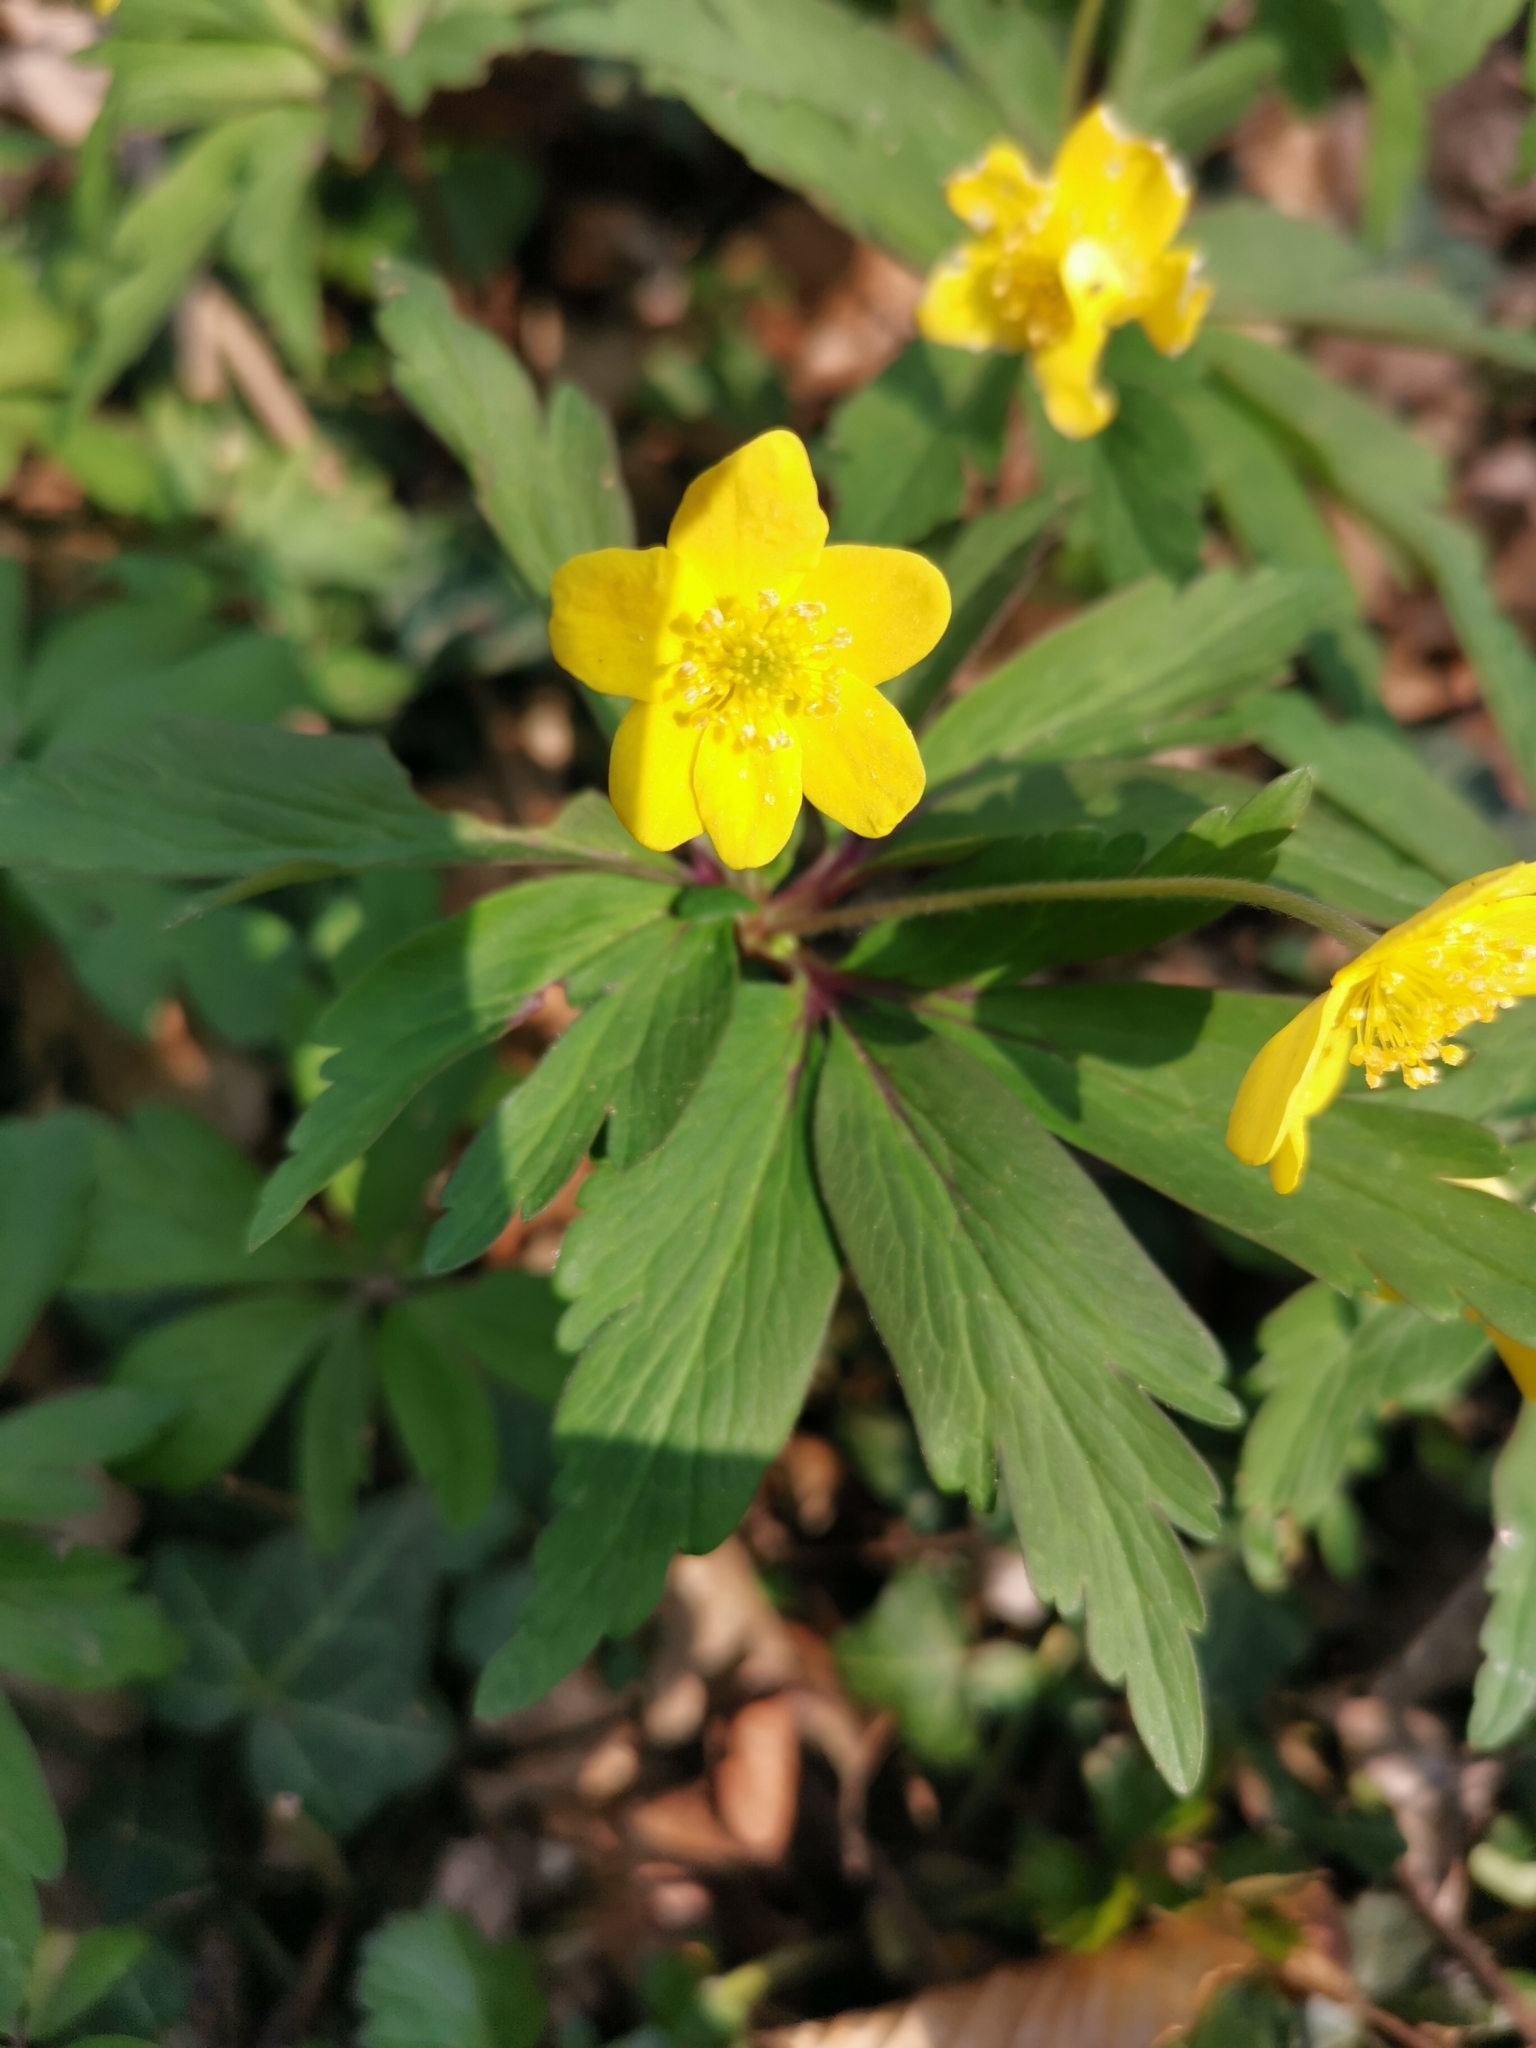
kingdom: Plantae
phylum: Tracheophyta
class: Magnoliopsida
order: Ranunculales
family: Ranunculaceae
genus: Anemone
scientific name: Anemone ranunculoides
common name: Yellow anemone
